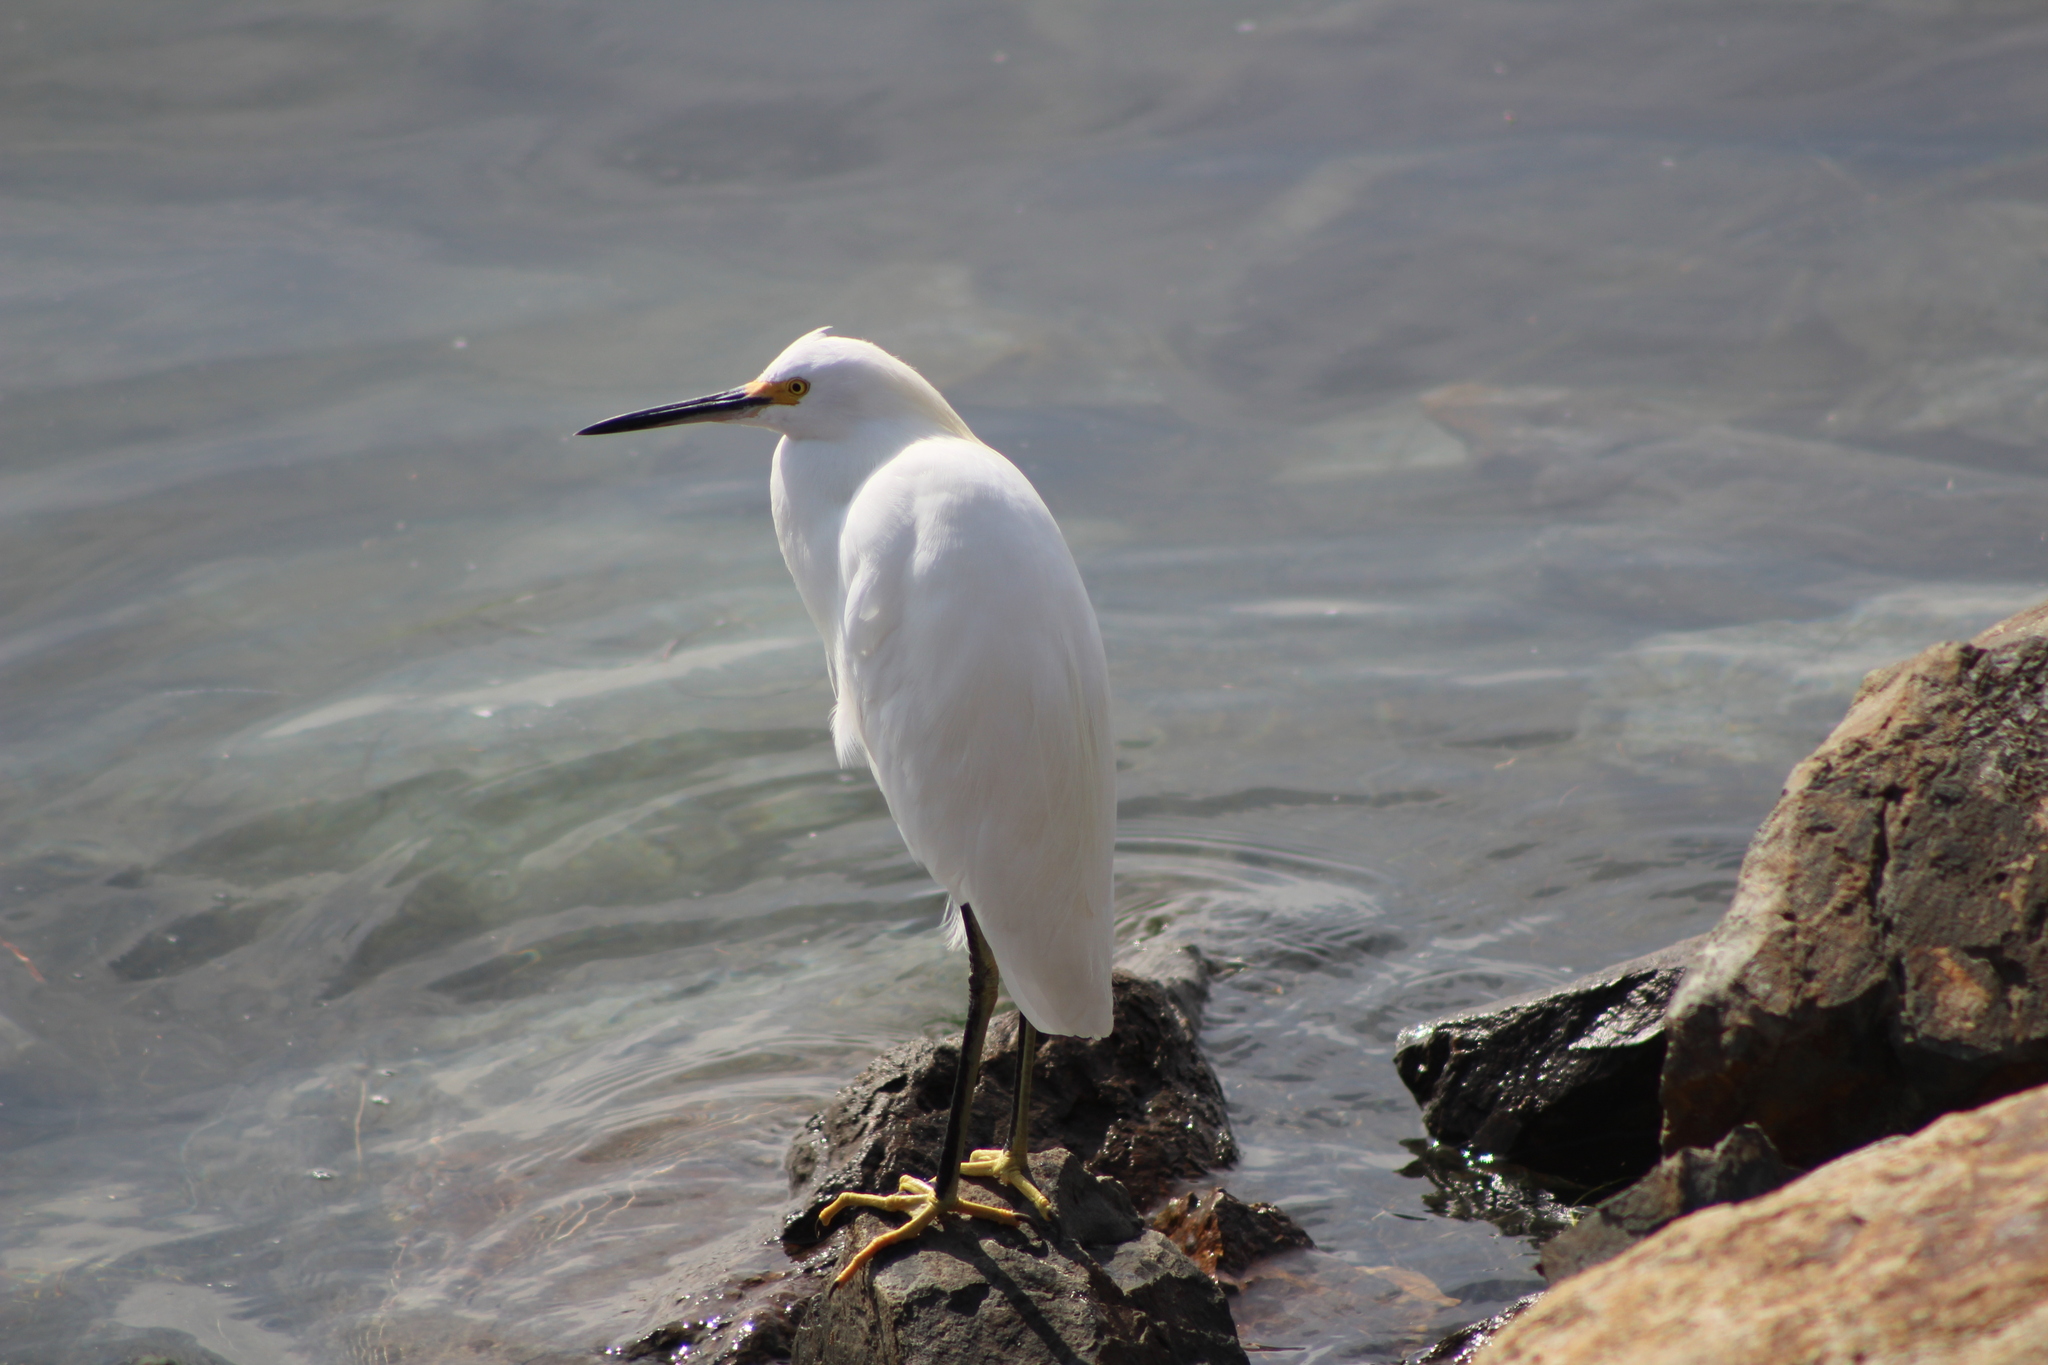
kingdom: Animalia
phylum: Chordata
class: Aves
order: Pelecaniformes
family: Ardeidae
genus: Egretta
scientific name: Egretta thula
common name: Snowy egret
